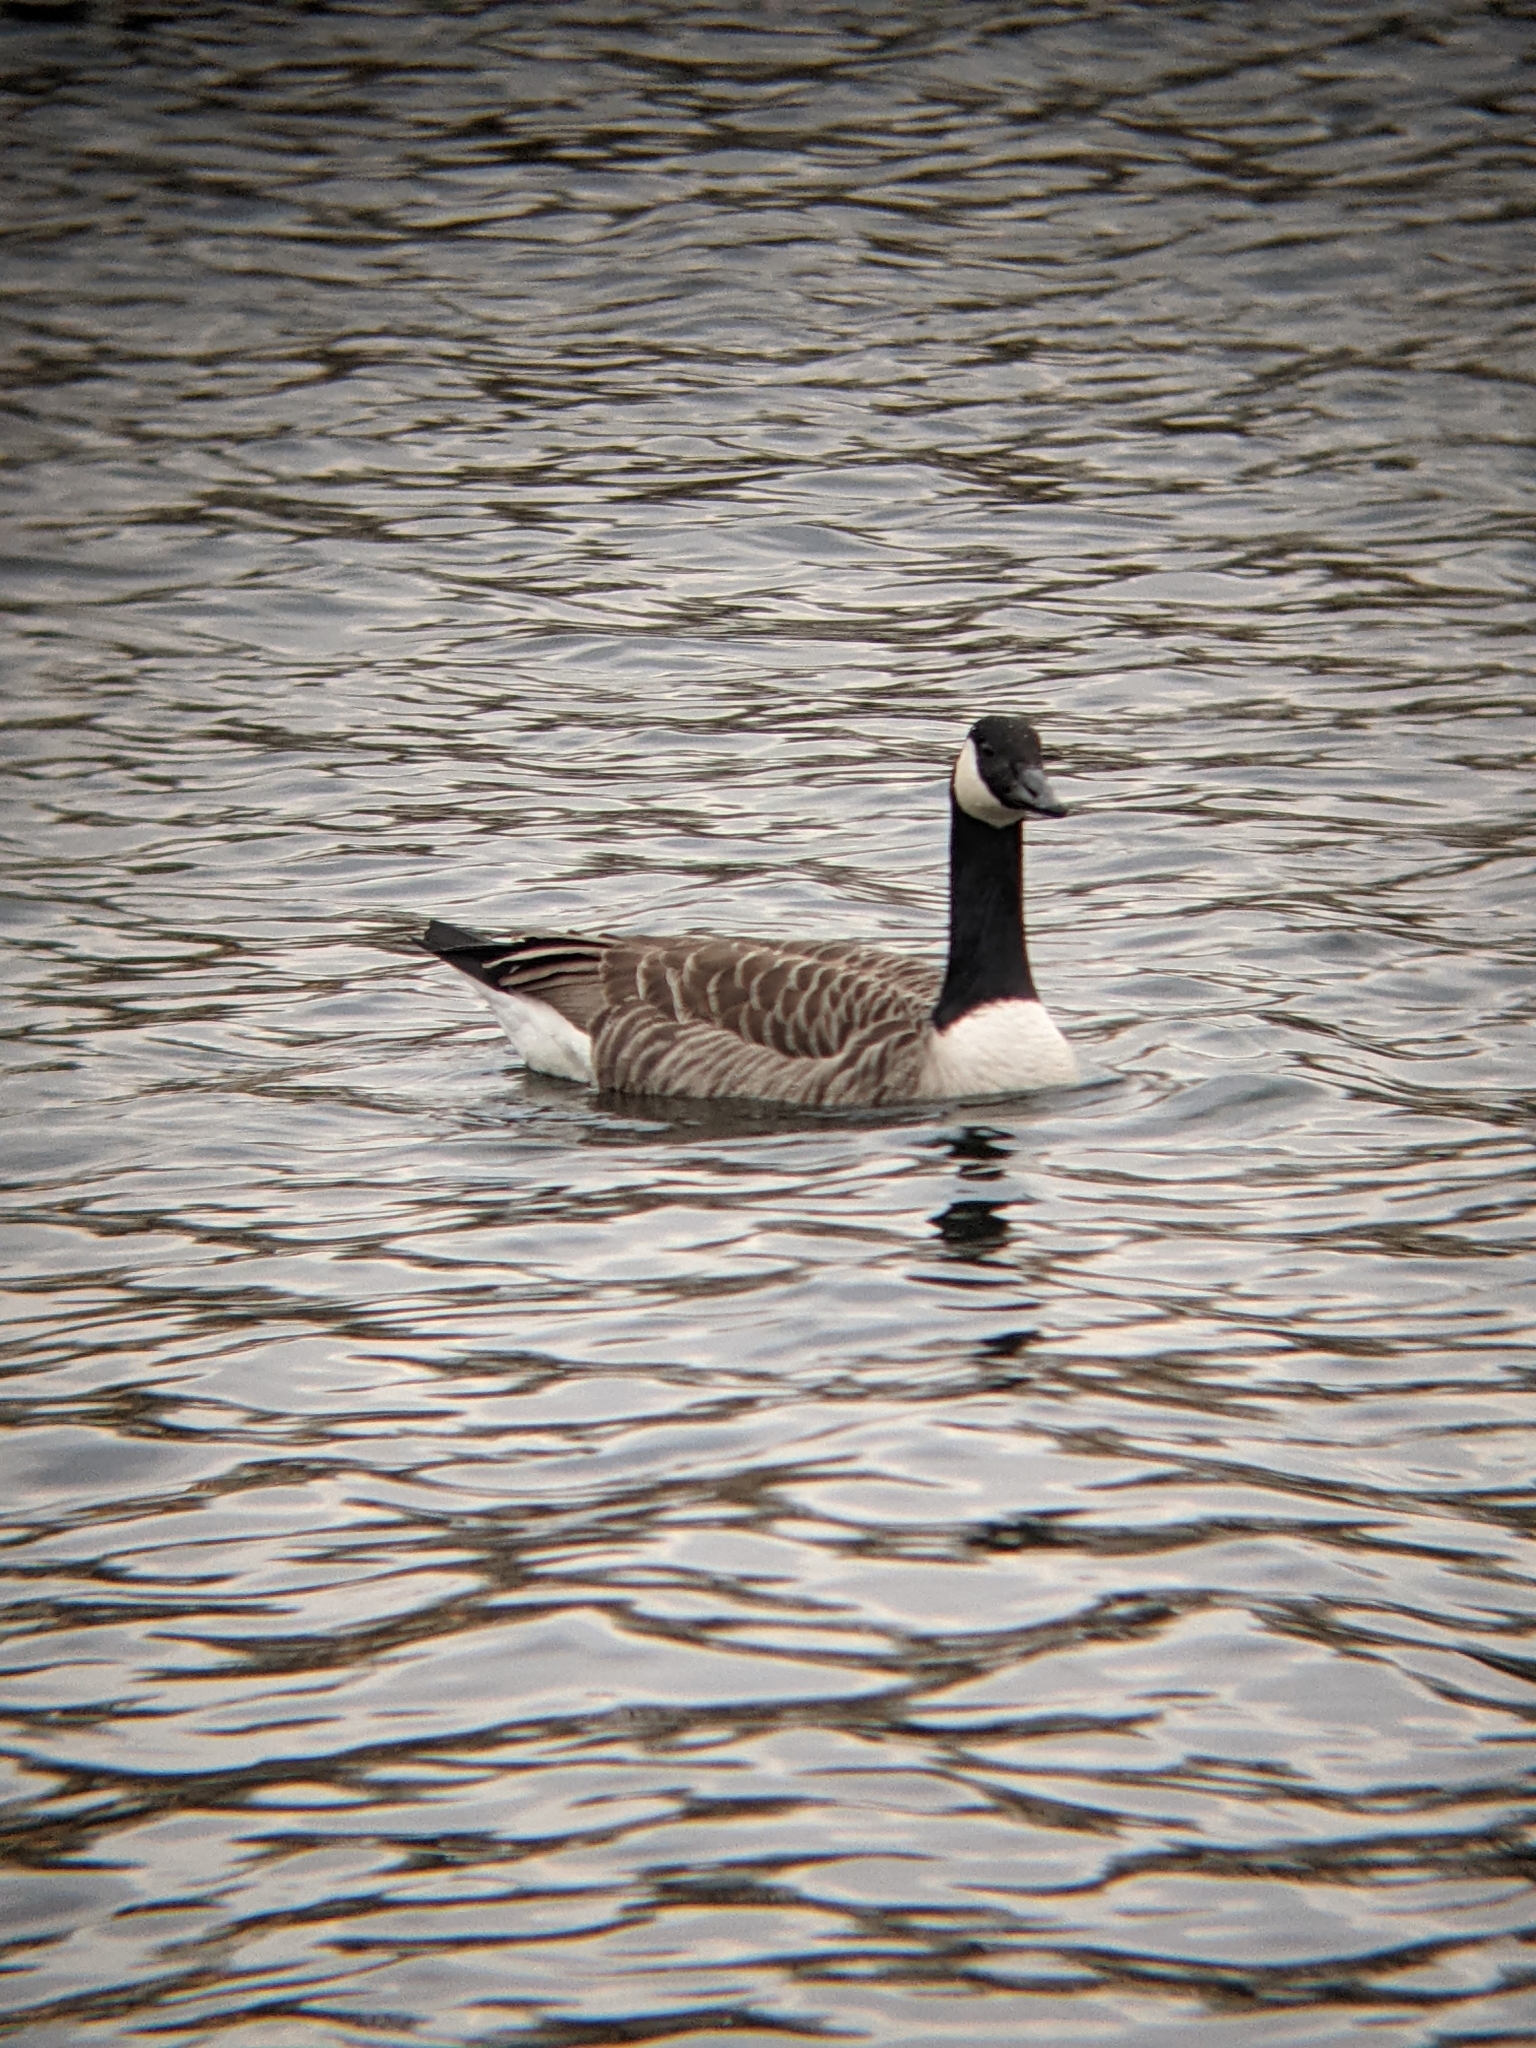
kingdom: Animalia
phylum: Chordata
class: Aves
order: Anseriformes
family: Anatidae
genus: Branta
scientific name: Branta canadensis
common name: Canada goose
